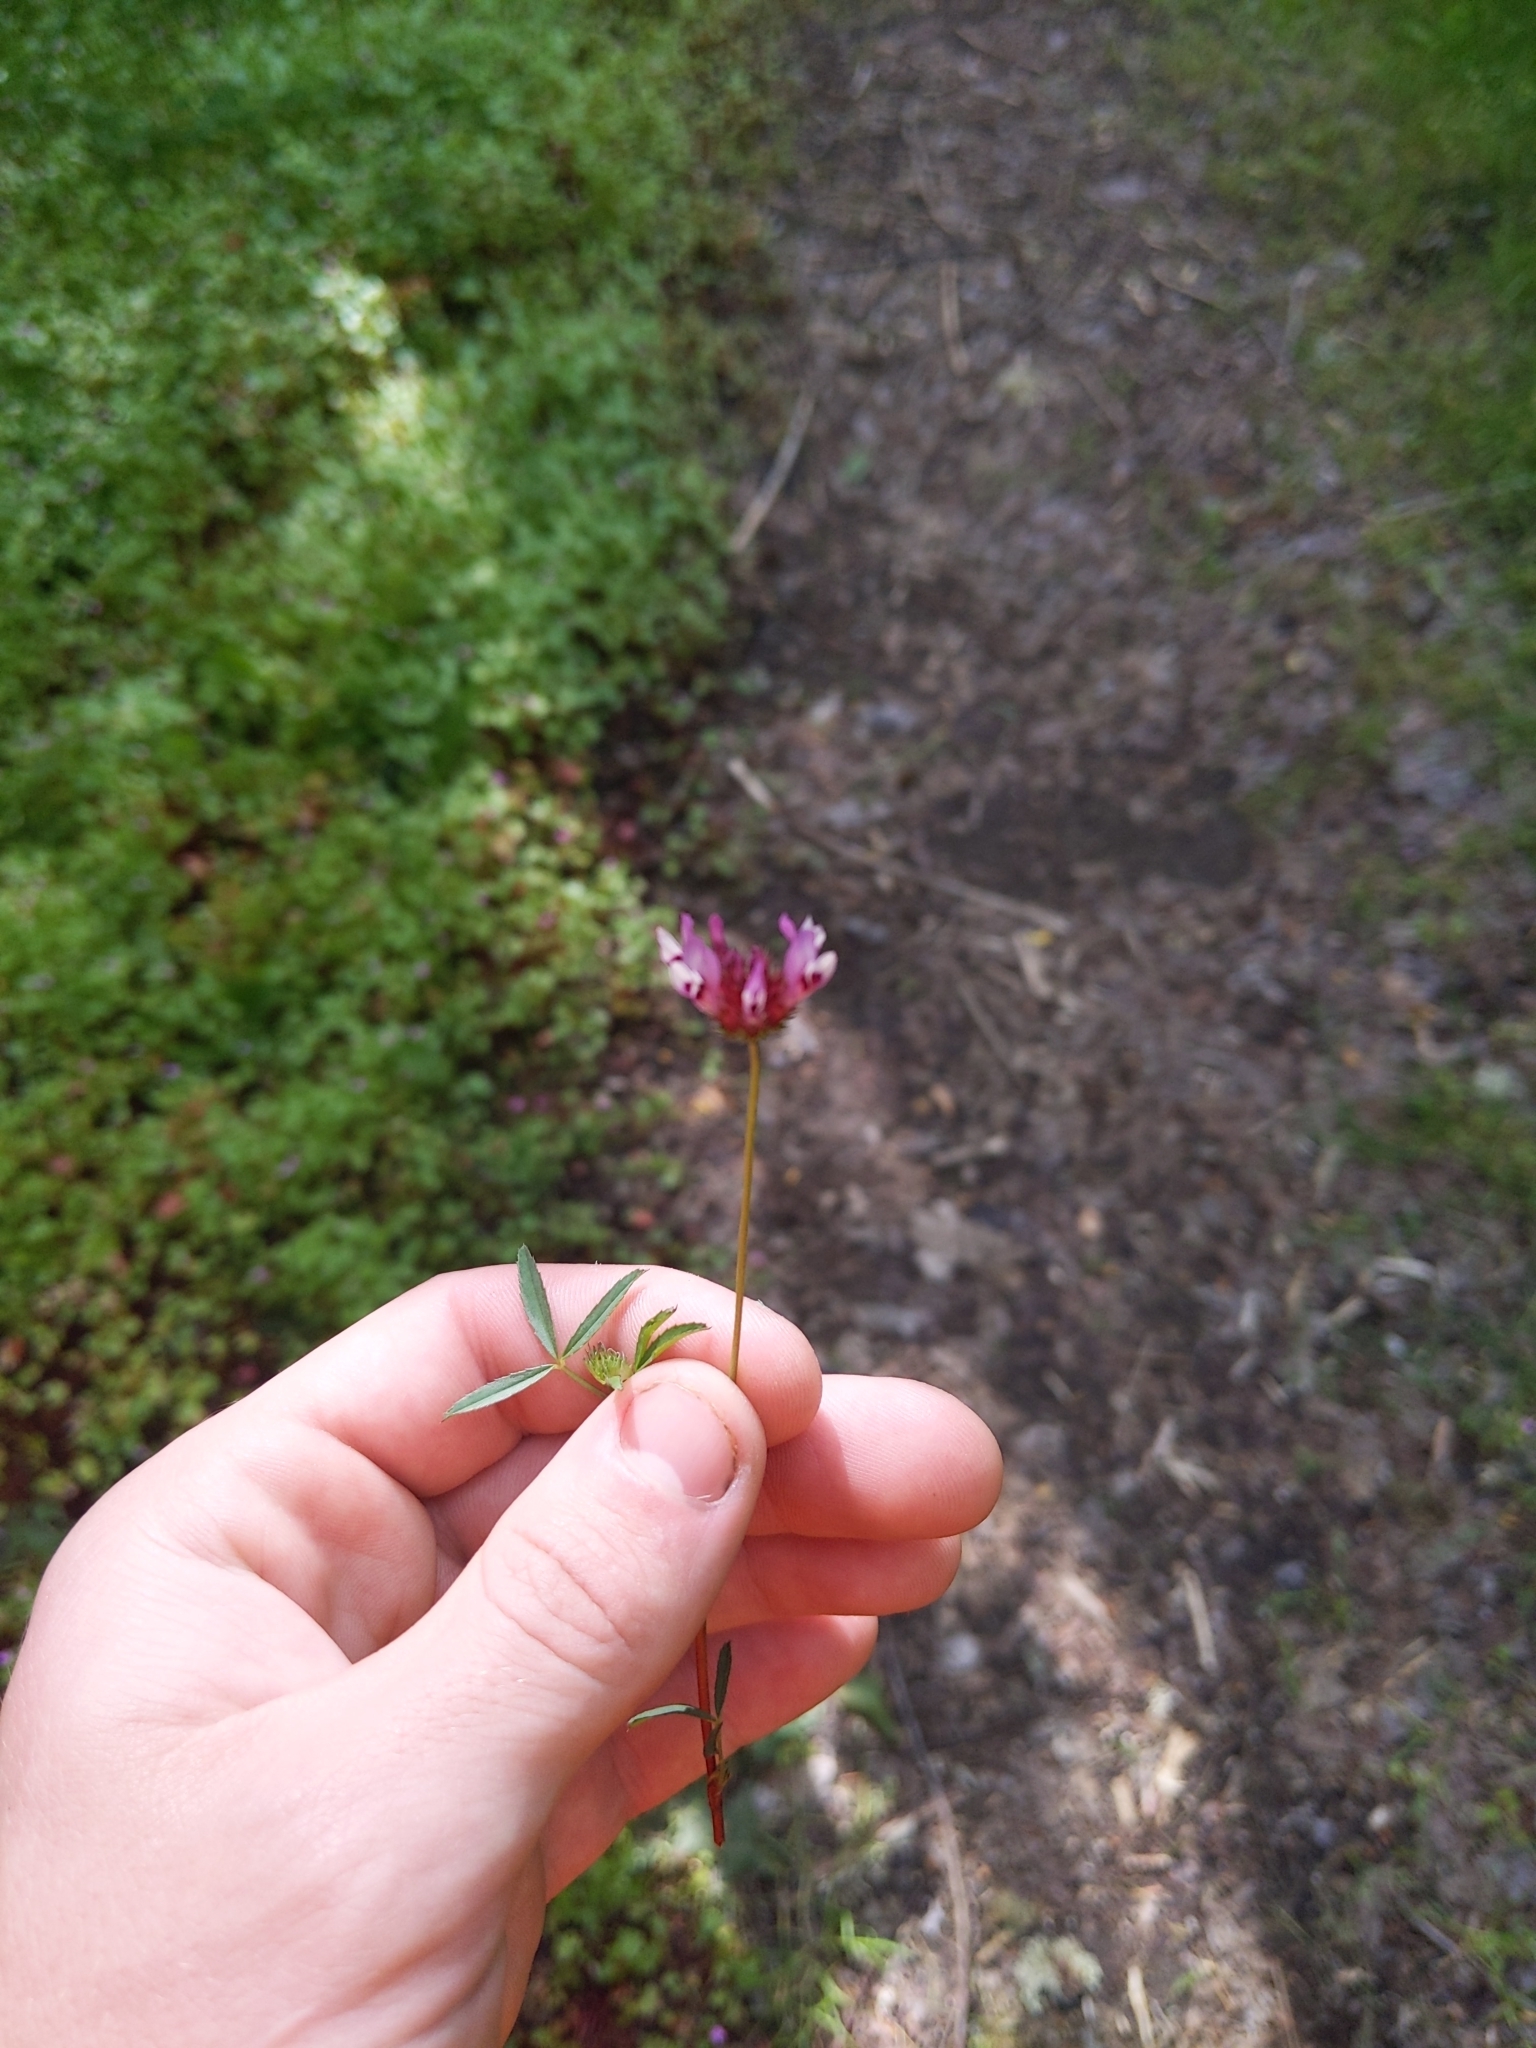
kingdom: Plantae
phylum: Tracheophyta
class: Magnoliopsida
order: Fabales
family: Fabaceae
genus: Trifolium
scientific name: Trifolium willdenovii
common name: Tomcat clover
